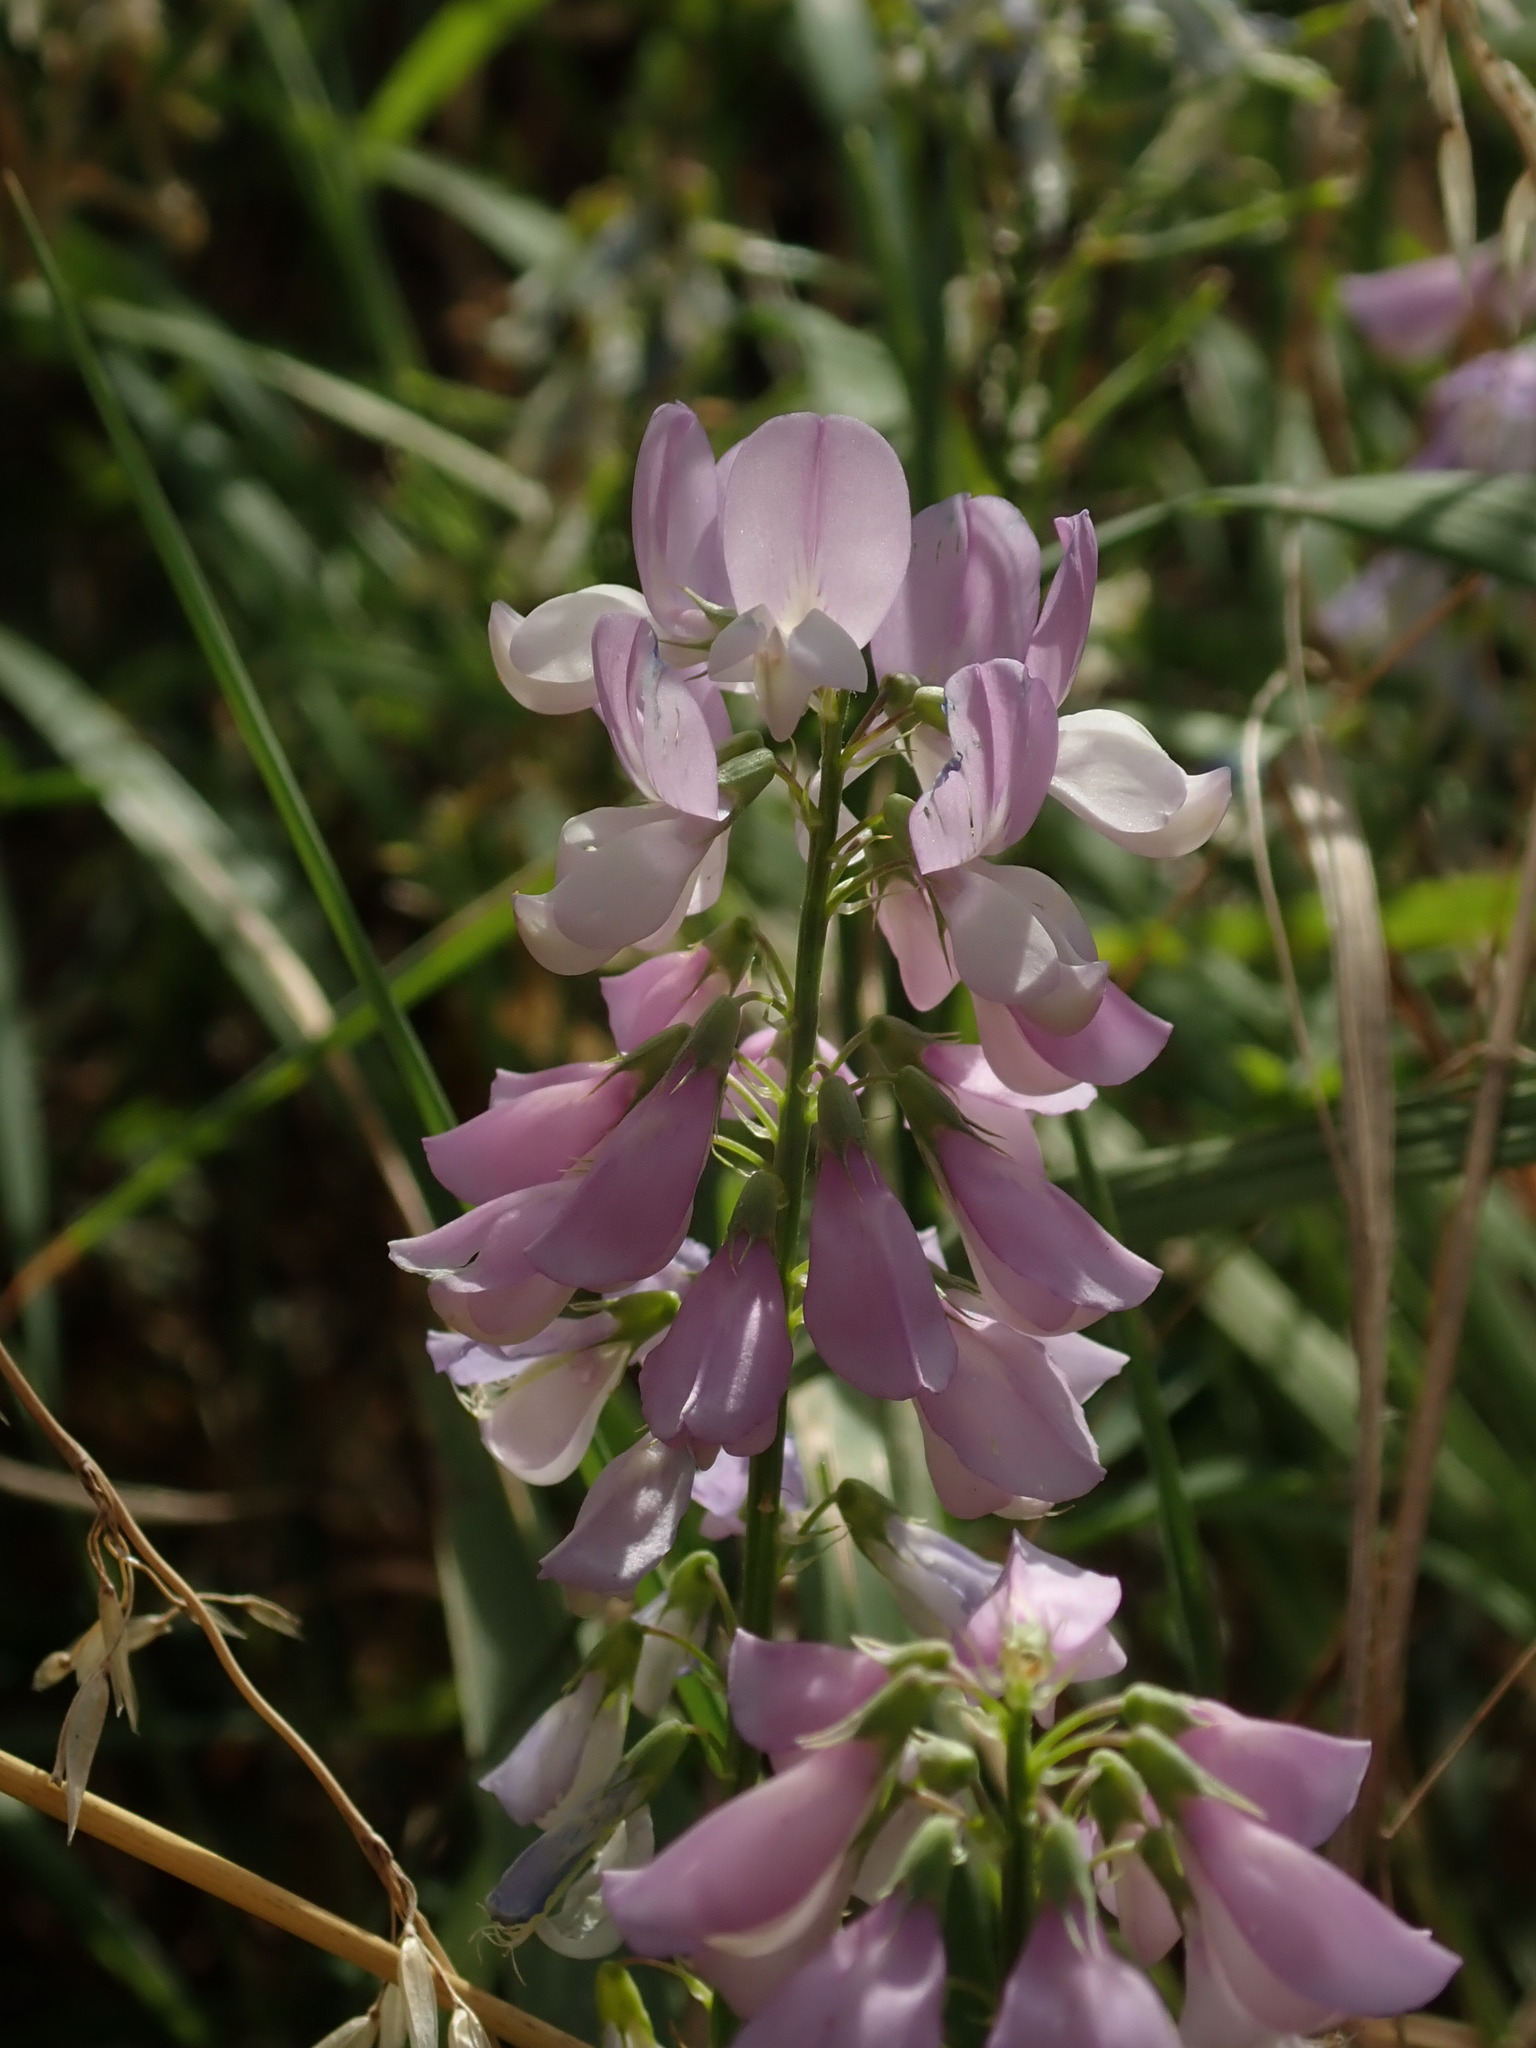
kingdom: Plantae
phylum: Tracheophyta
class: Magnoliopsida
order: Fabales
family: Fabaceae
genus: Galega
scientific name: Galega officinalis
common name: Goat's-rue
